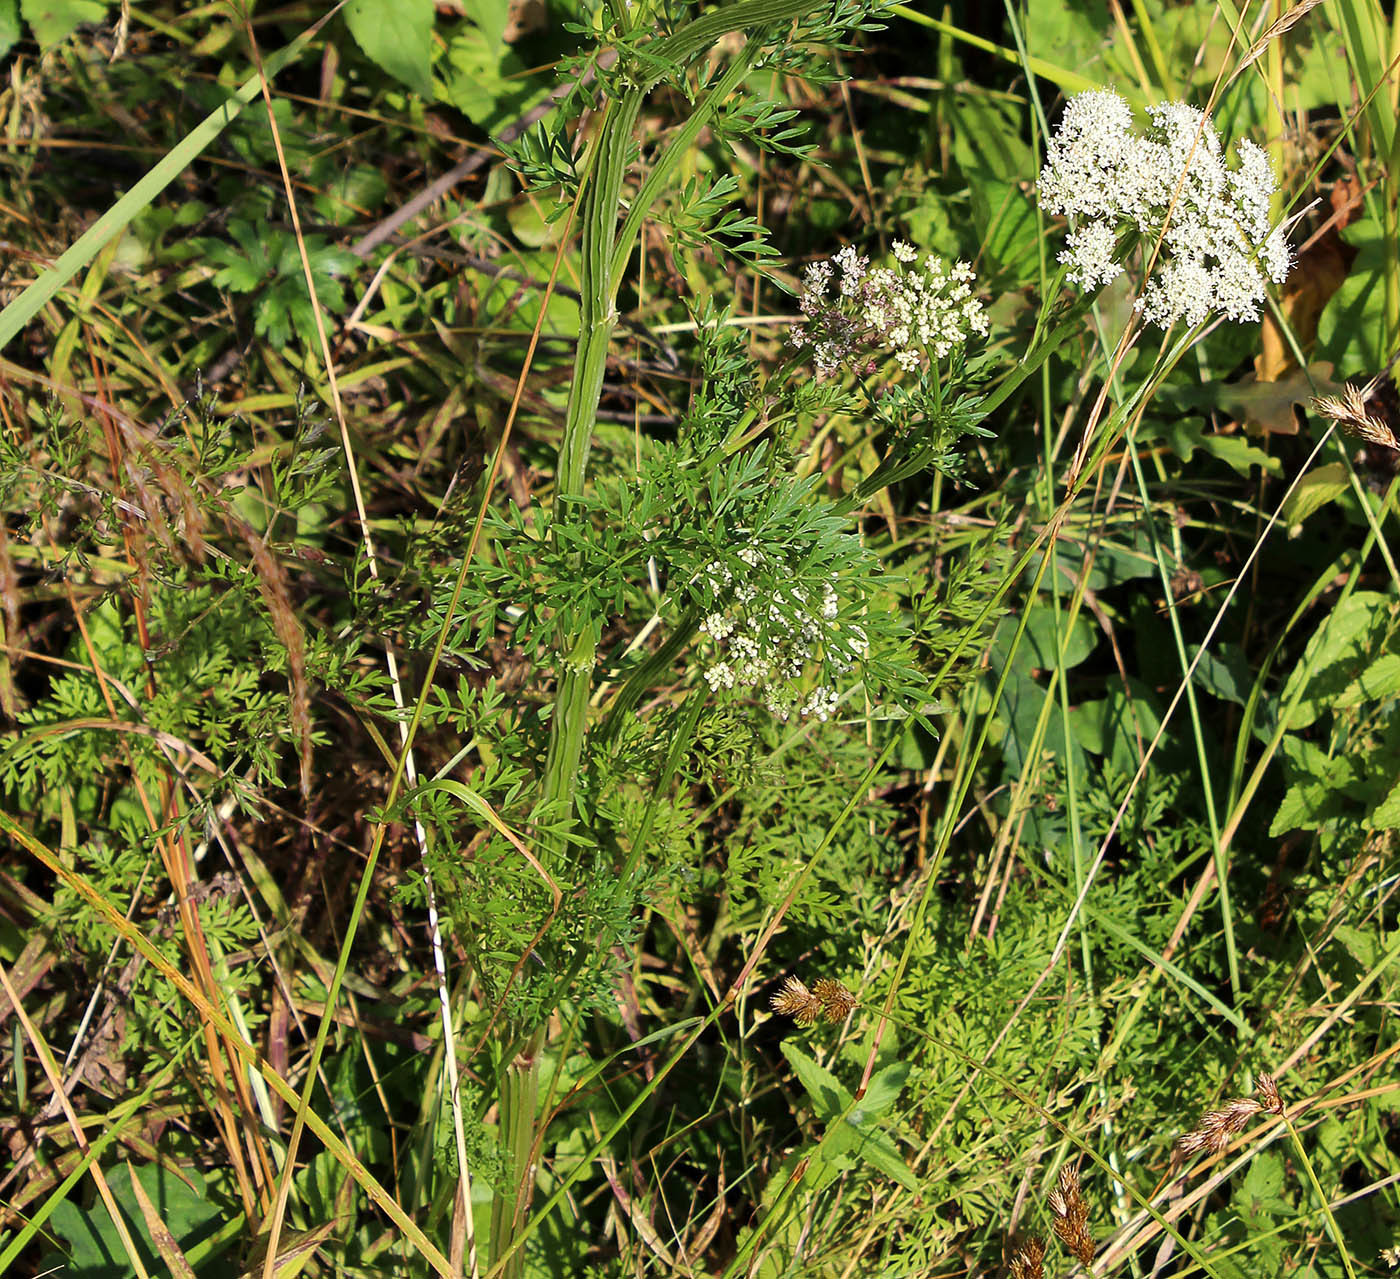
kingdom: Plantae
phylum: Tracheophyta
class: Magnoliopsida
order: Apiales
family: Apiaceae
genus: Selinum
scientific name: Selinum carvifolia
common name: Cambridge milk-parsley
